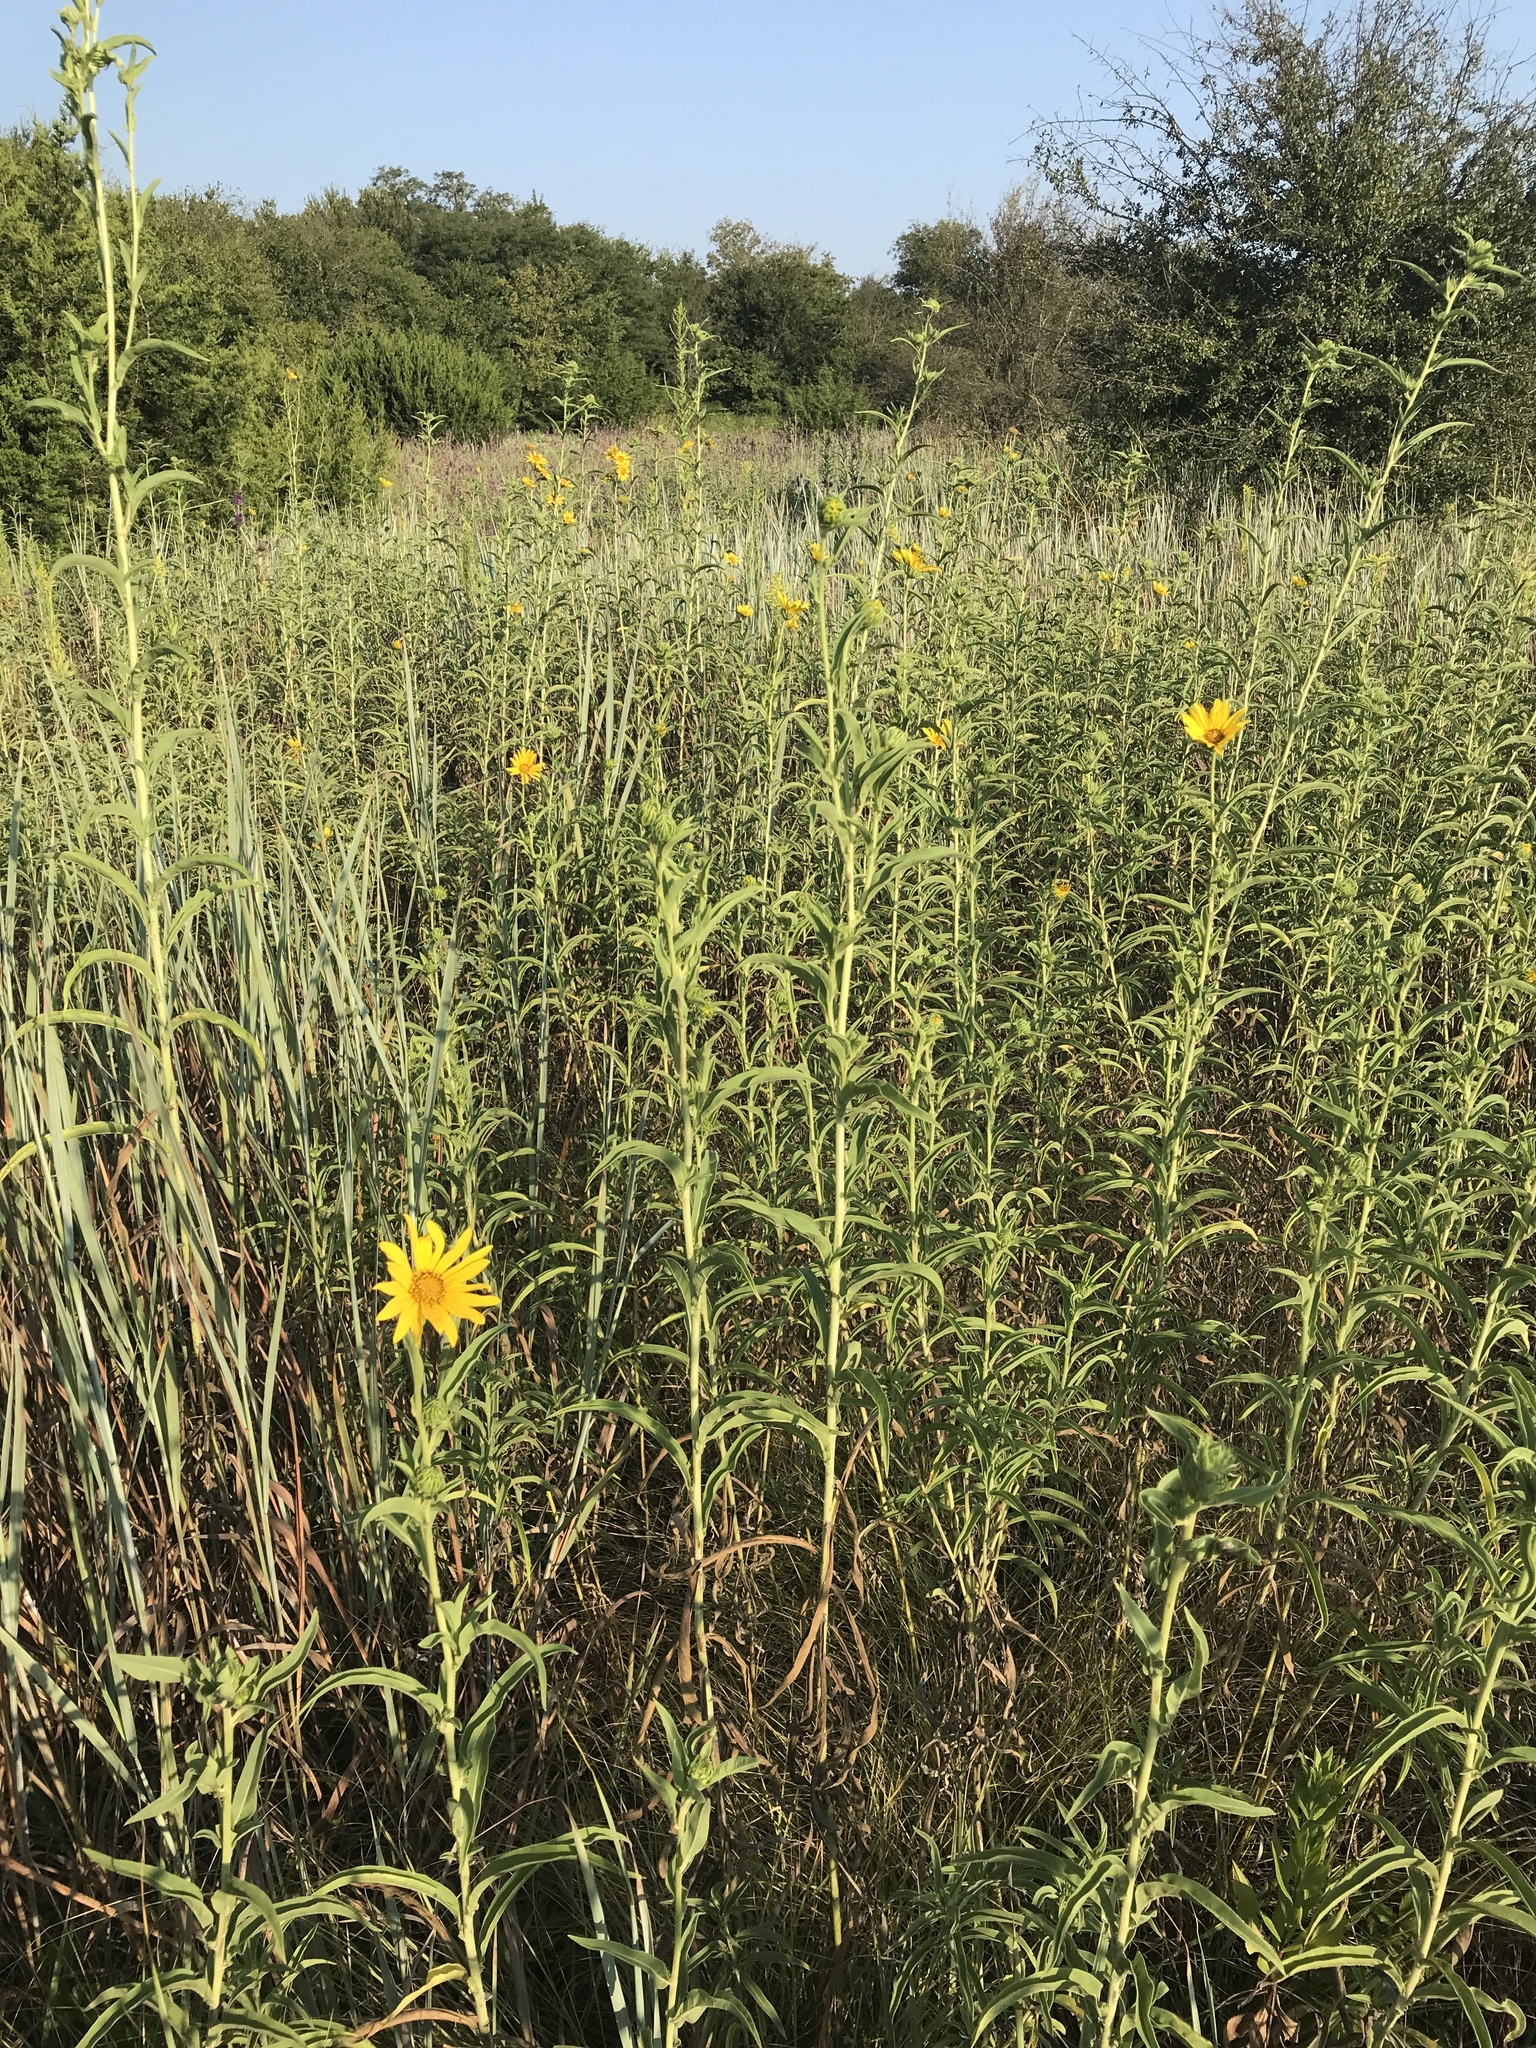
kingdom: Plantae
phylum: Tracheophyta
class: Magnoliopsida
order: Asterales
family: Asteraceae
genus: Helianthus
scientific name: Helianthus maximiliani
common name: Maximilian's sunflower
